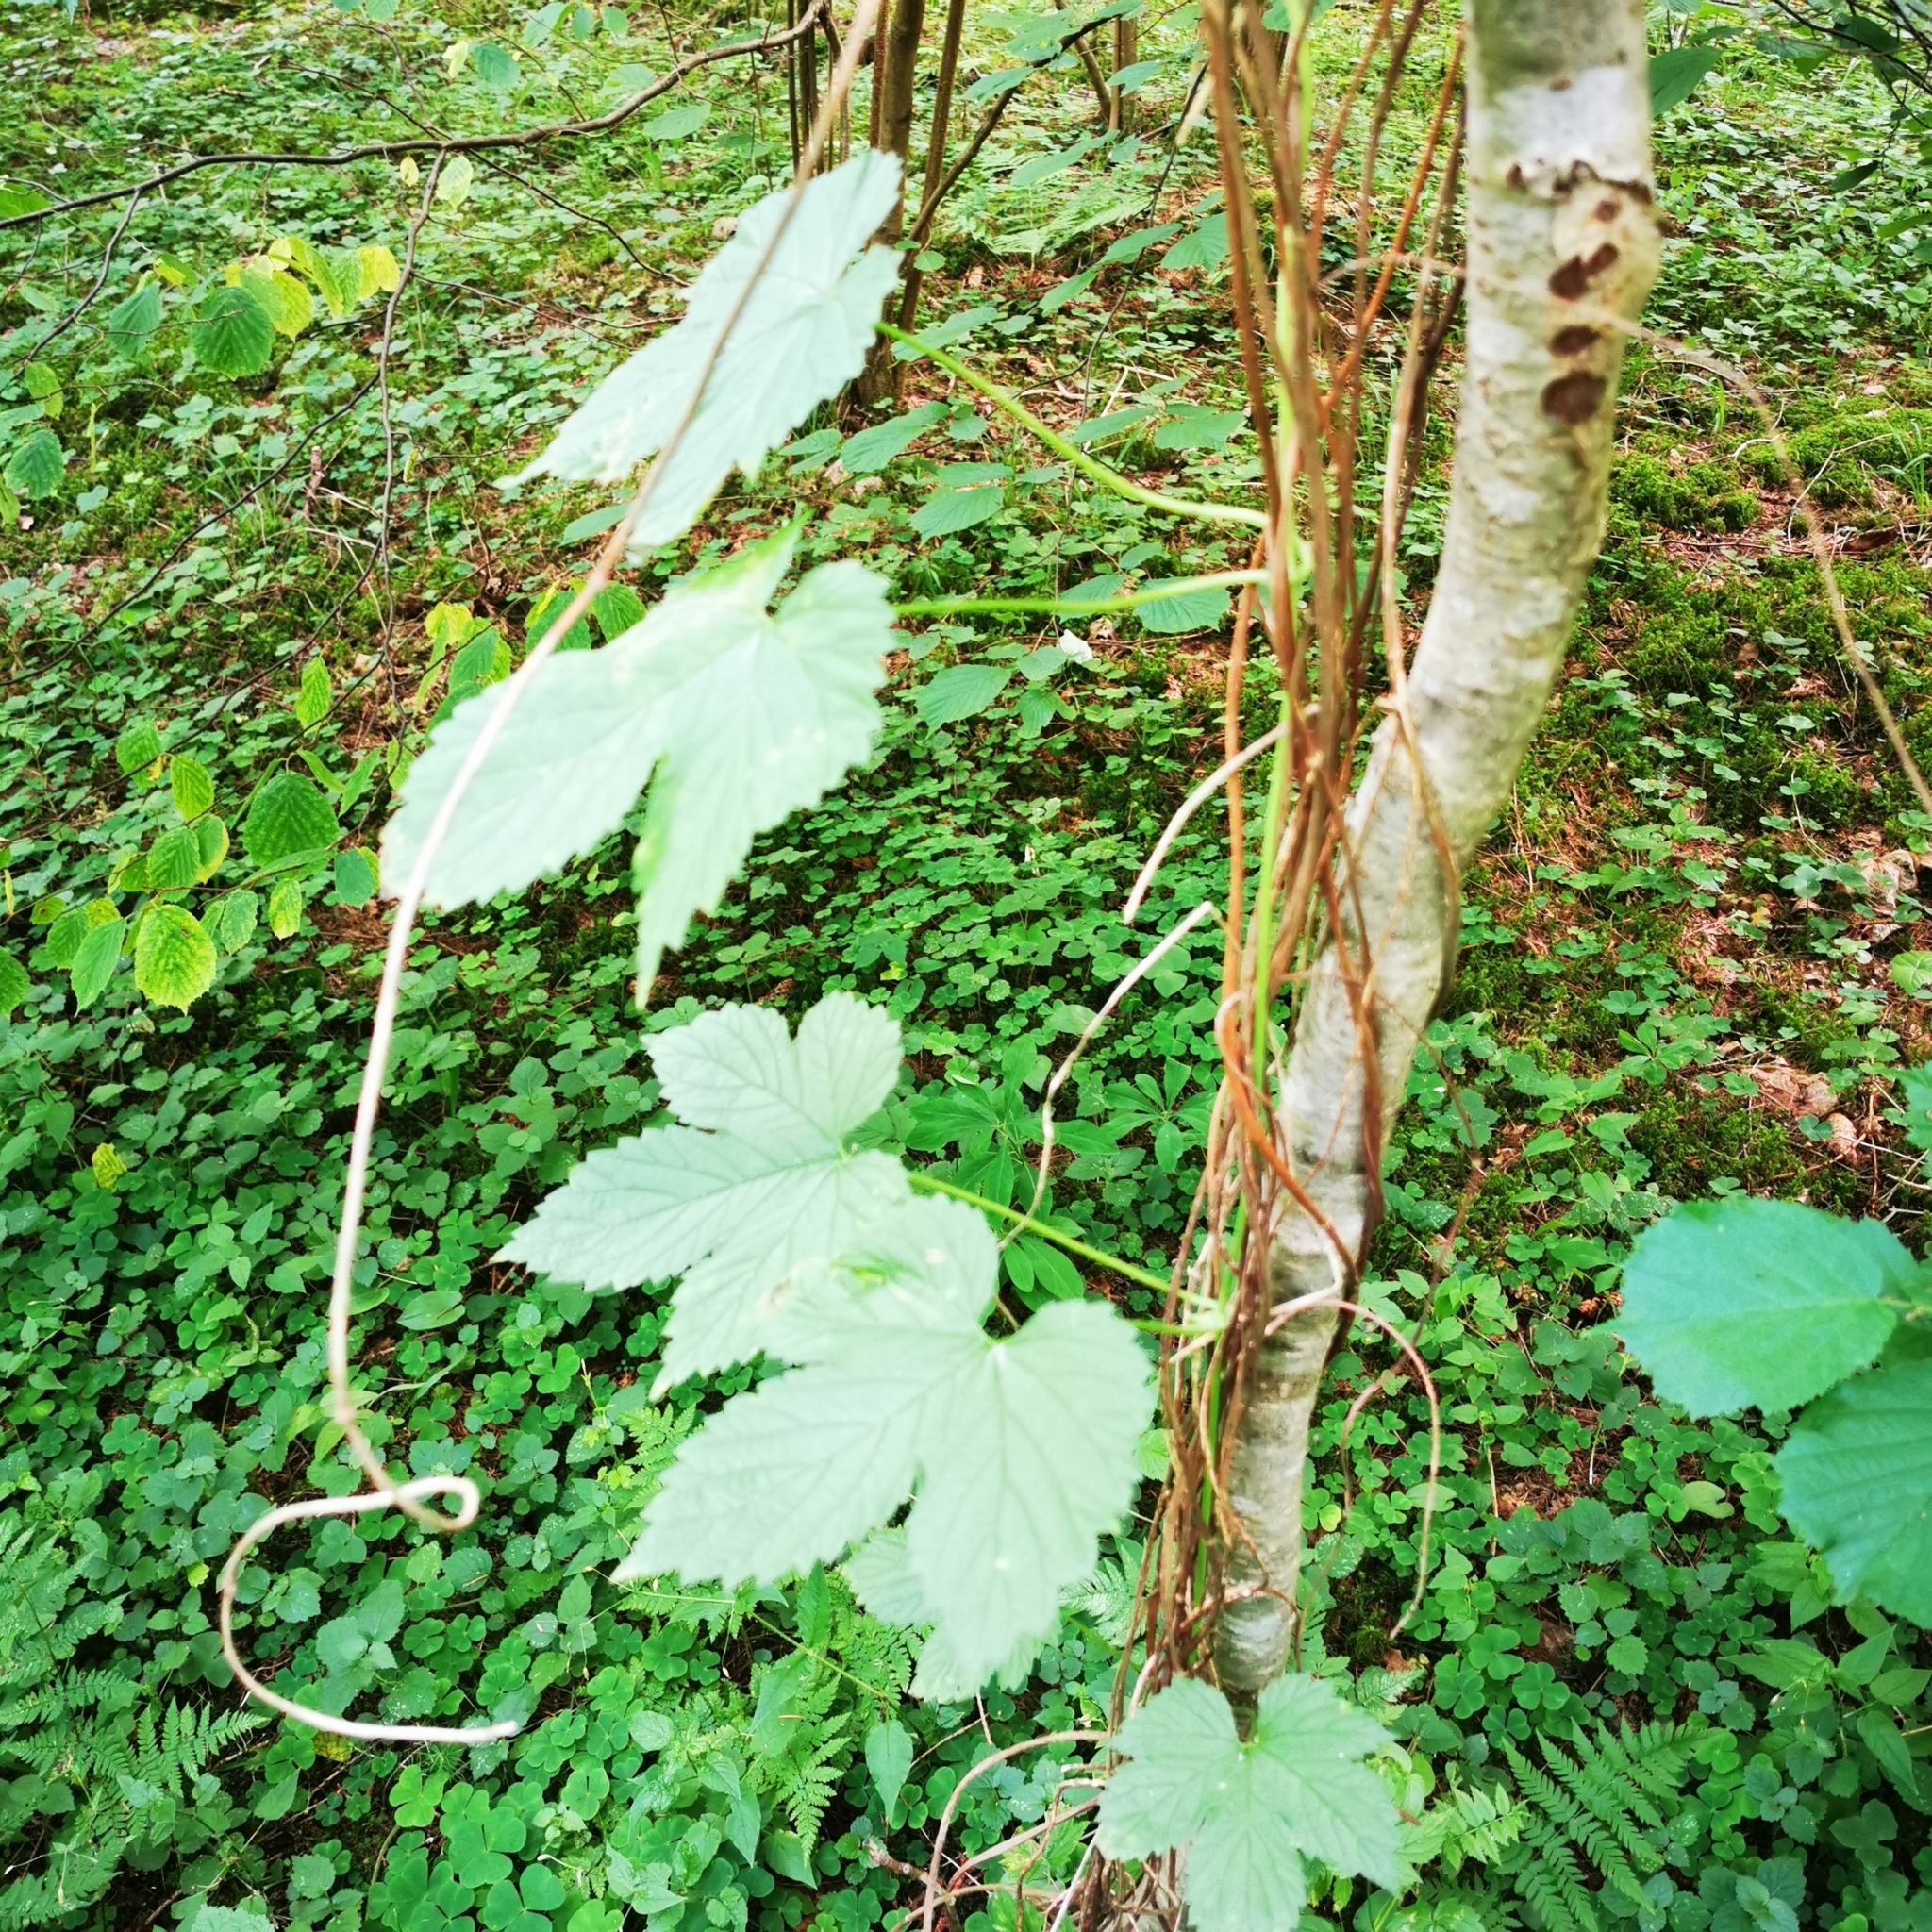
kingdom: Plantae
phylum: Tracheophyta
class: Magnoliopsida
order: Rosales
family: Cannabaceae
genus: Humulus
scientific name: Humulus lupulus
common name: Hop
